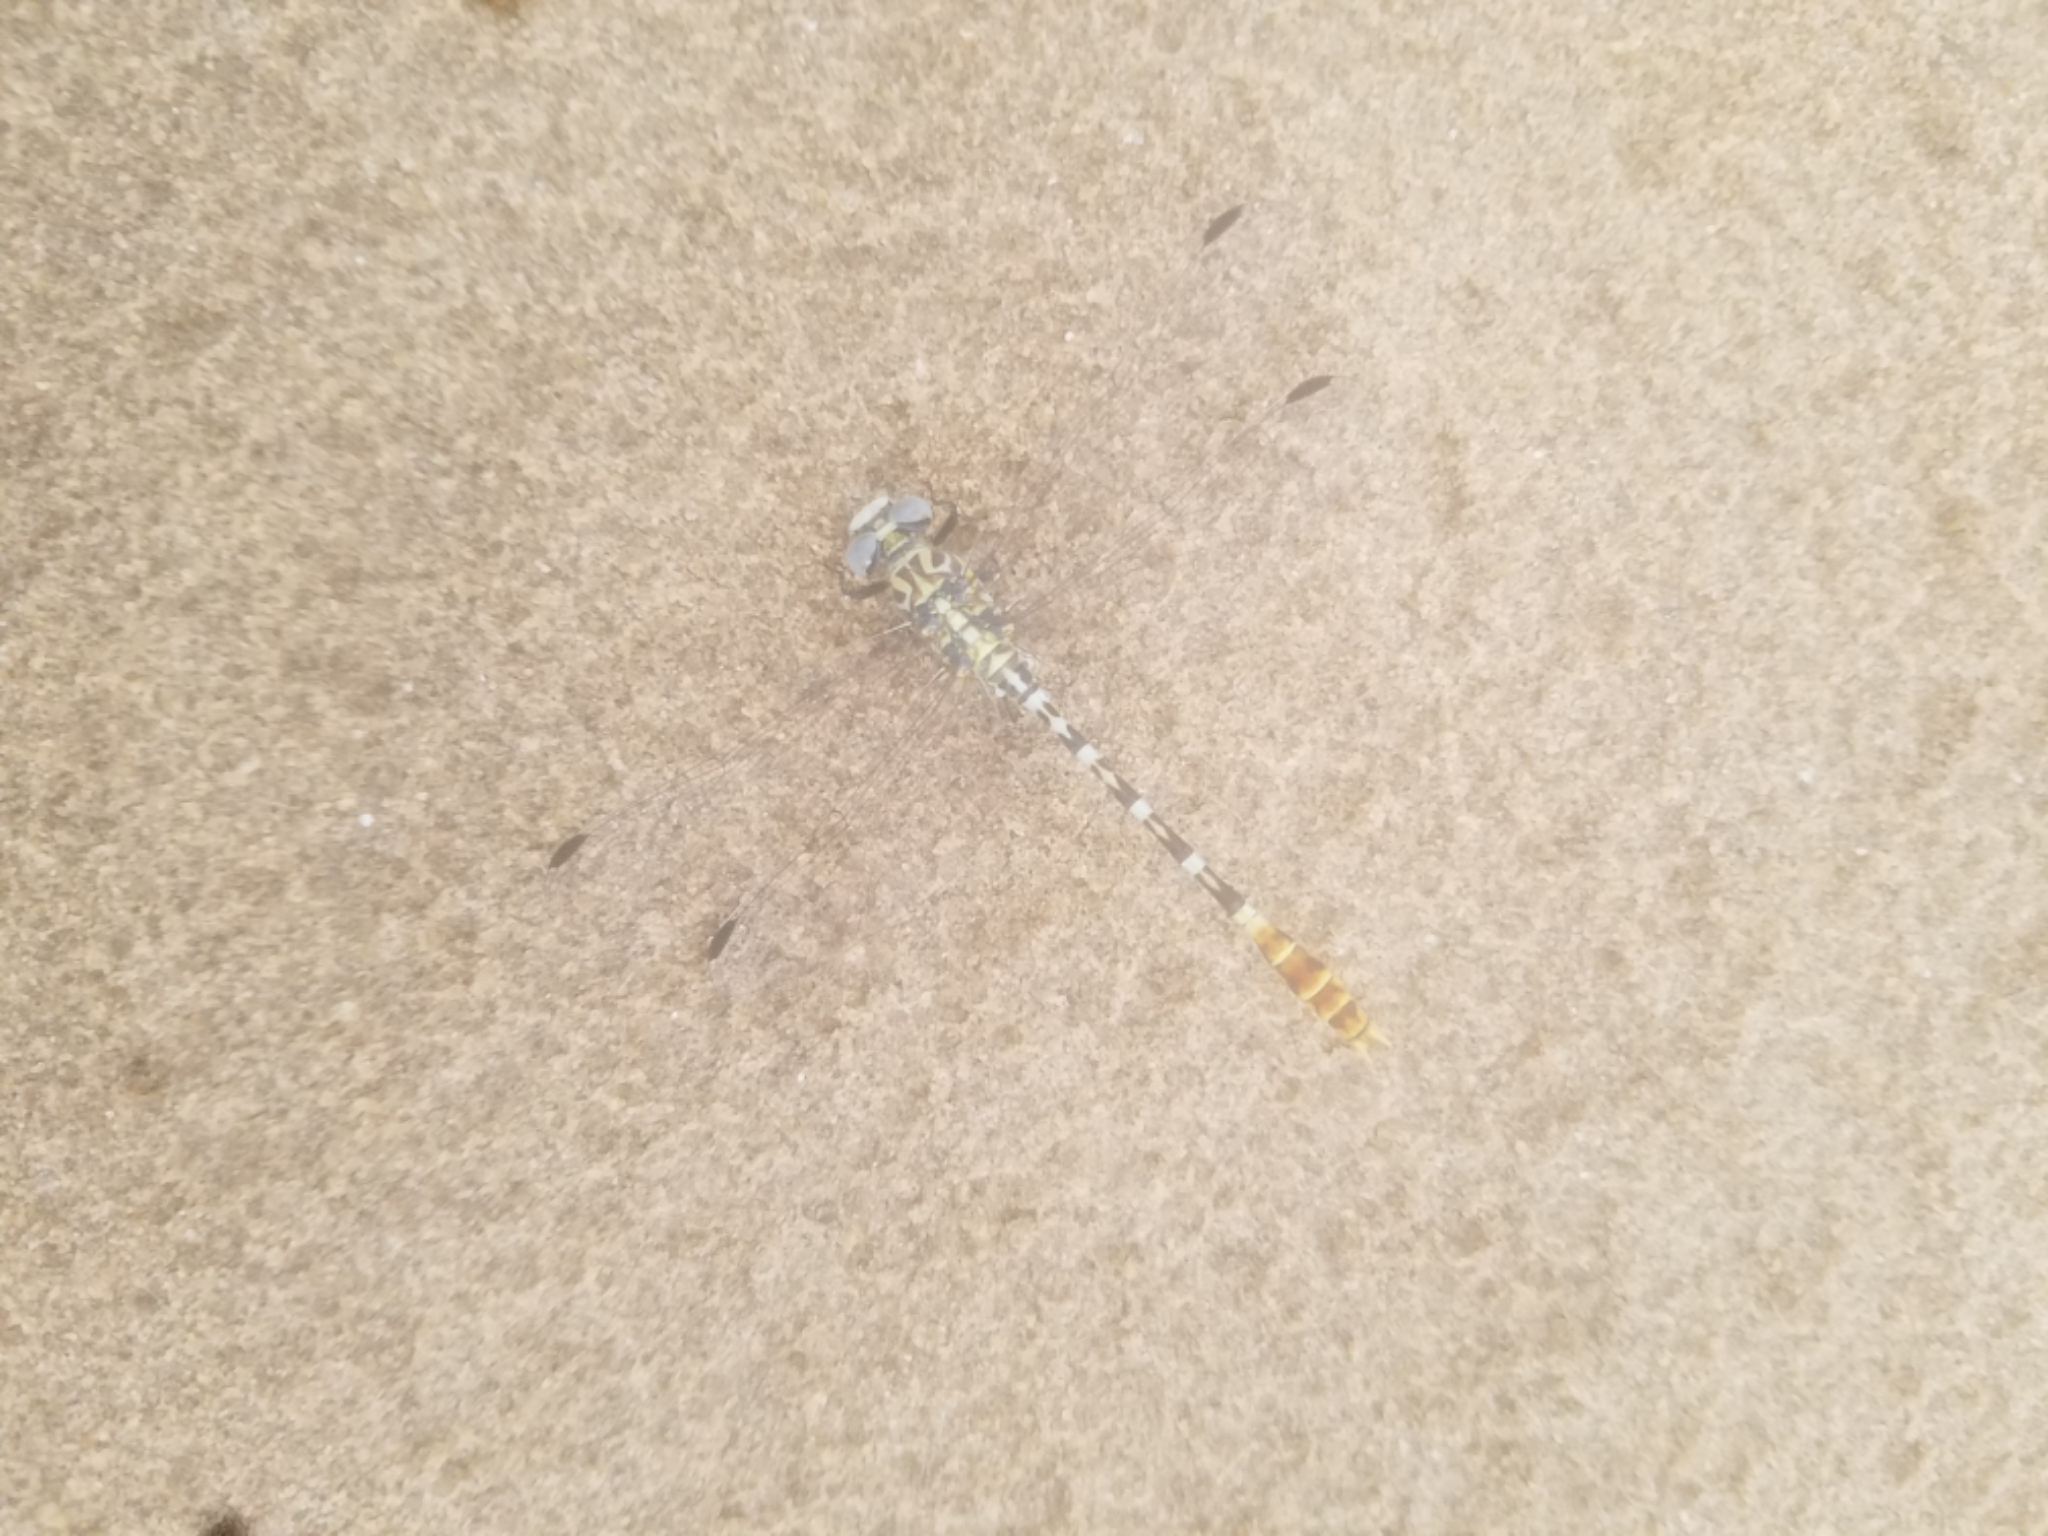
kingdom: Animalia
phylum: Arthropoda
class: Insecta
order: Odonata
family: Gomphidae
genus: Erpetogomphus
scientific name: Erpetogomphus compositus
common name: White-belted ringtail
